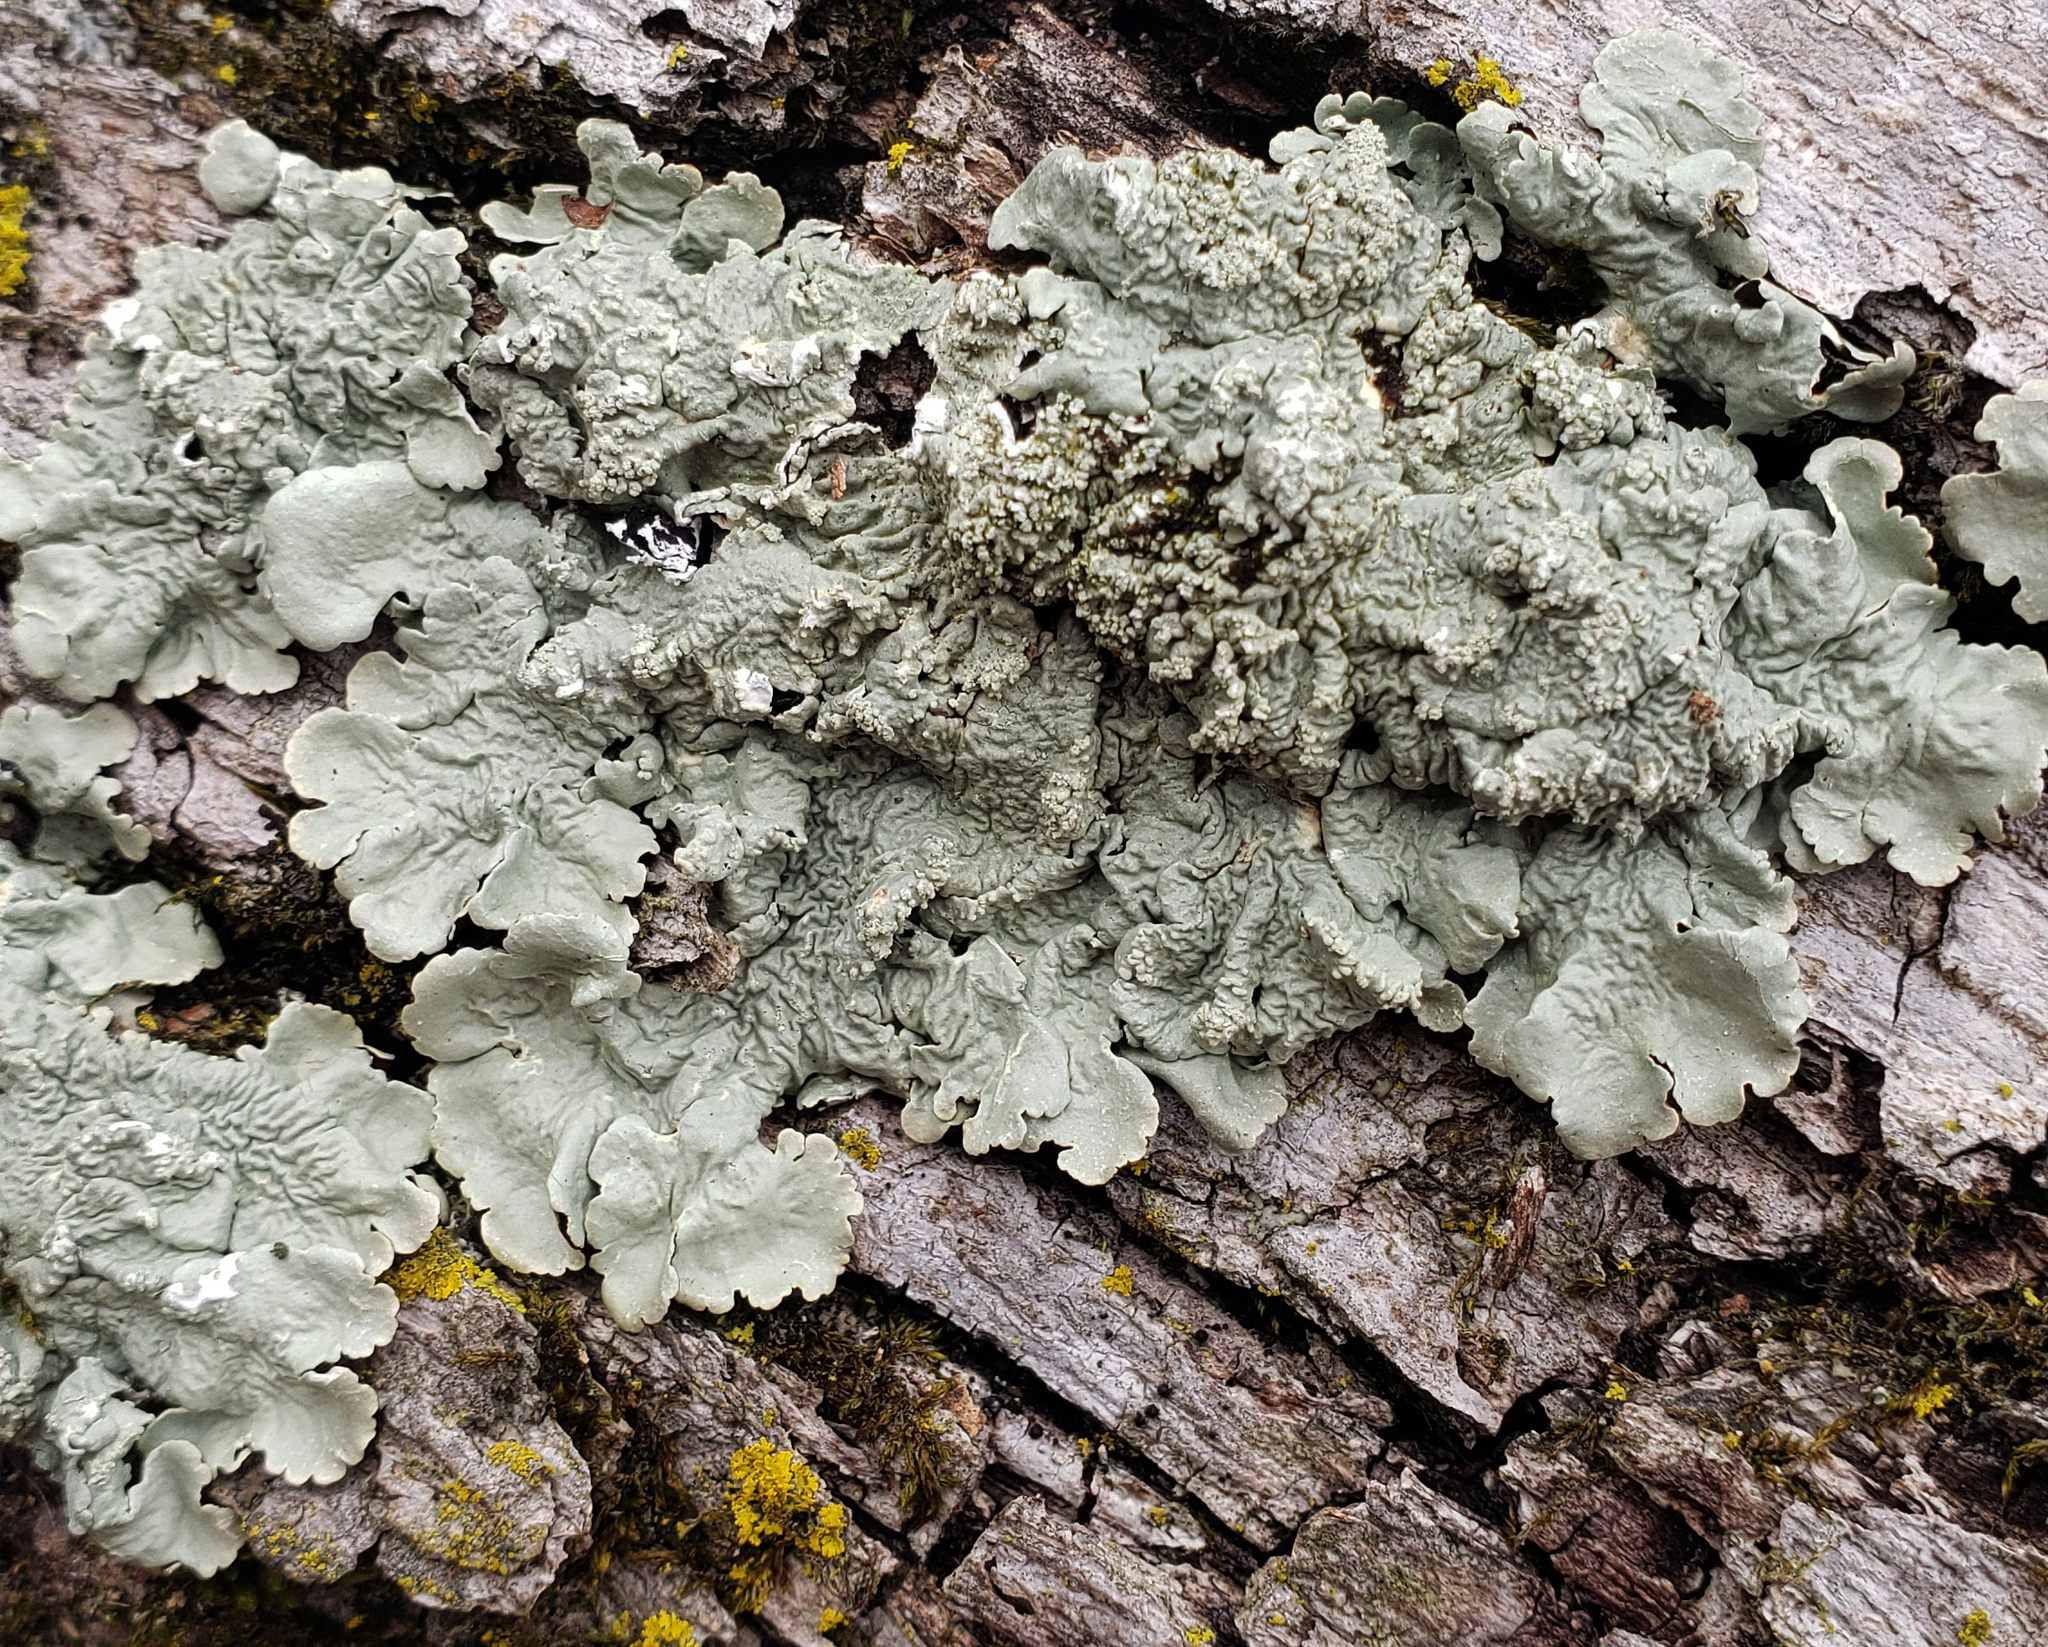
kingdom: Fungi
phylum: Ascomycota
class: Lecanoromycetes
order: Lecanorales
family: Parmeliaceae
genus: Flavoparmelia
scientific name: Flavoparmelia caperata
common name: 40-mile per hour lichen
